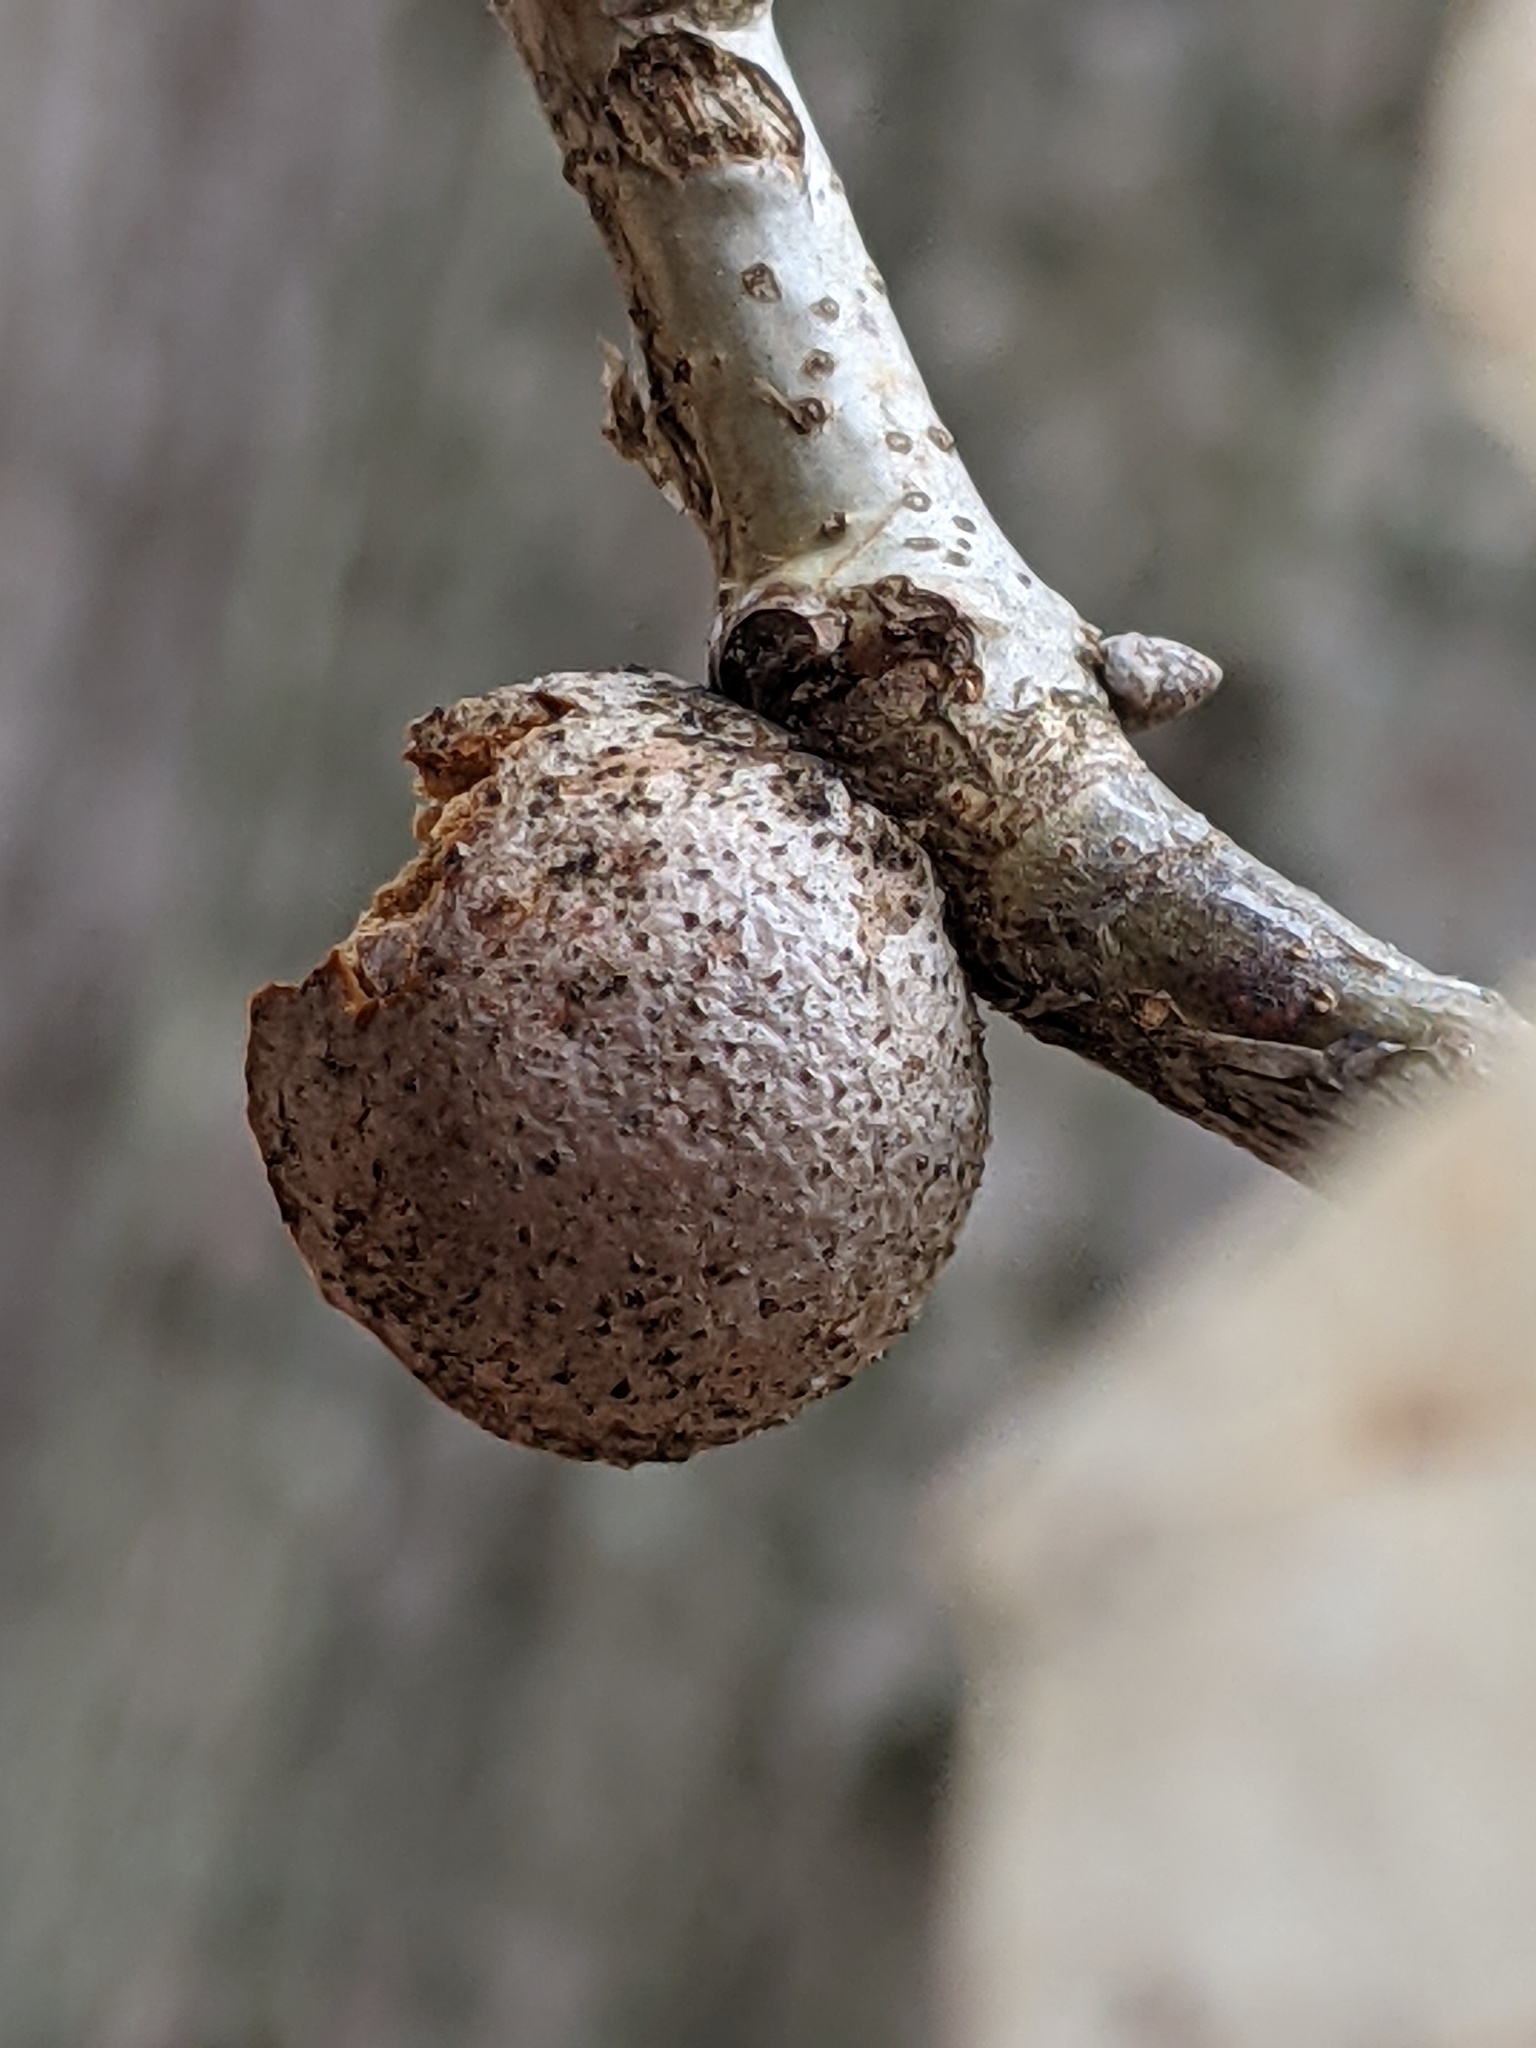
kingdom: Animalia
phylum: Arthropoda
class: Insecta
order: Hymenoptera
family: Cynipidae
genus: Disholcaspis
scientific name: Disholcaspis quercusglobulus
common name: Round bullet gall wasp
